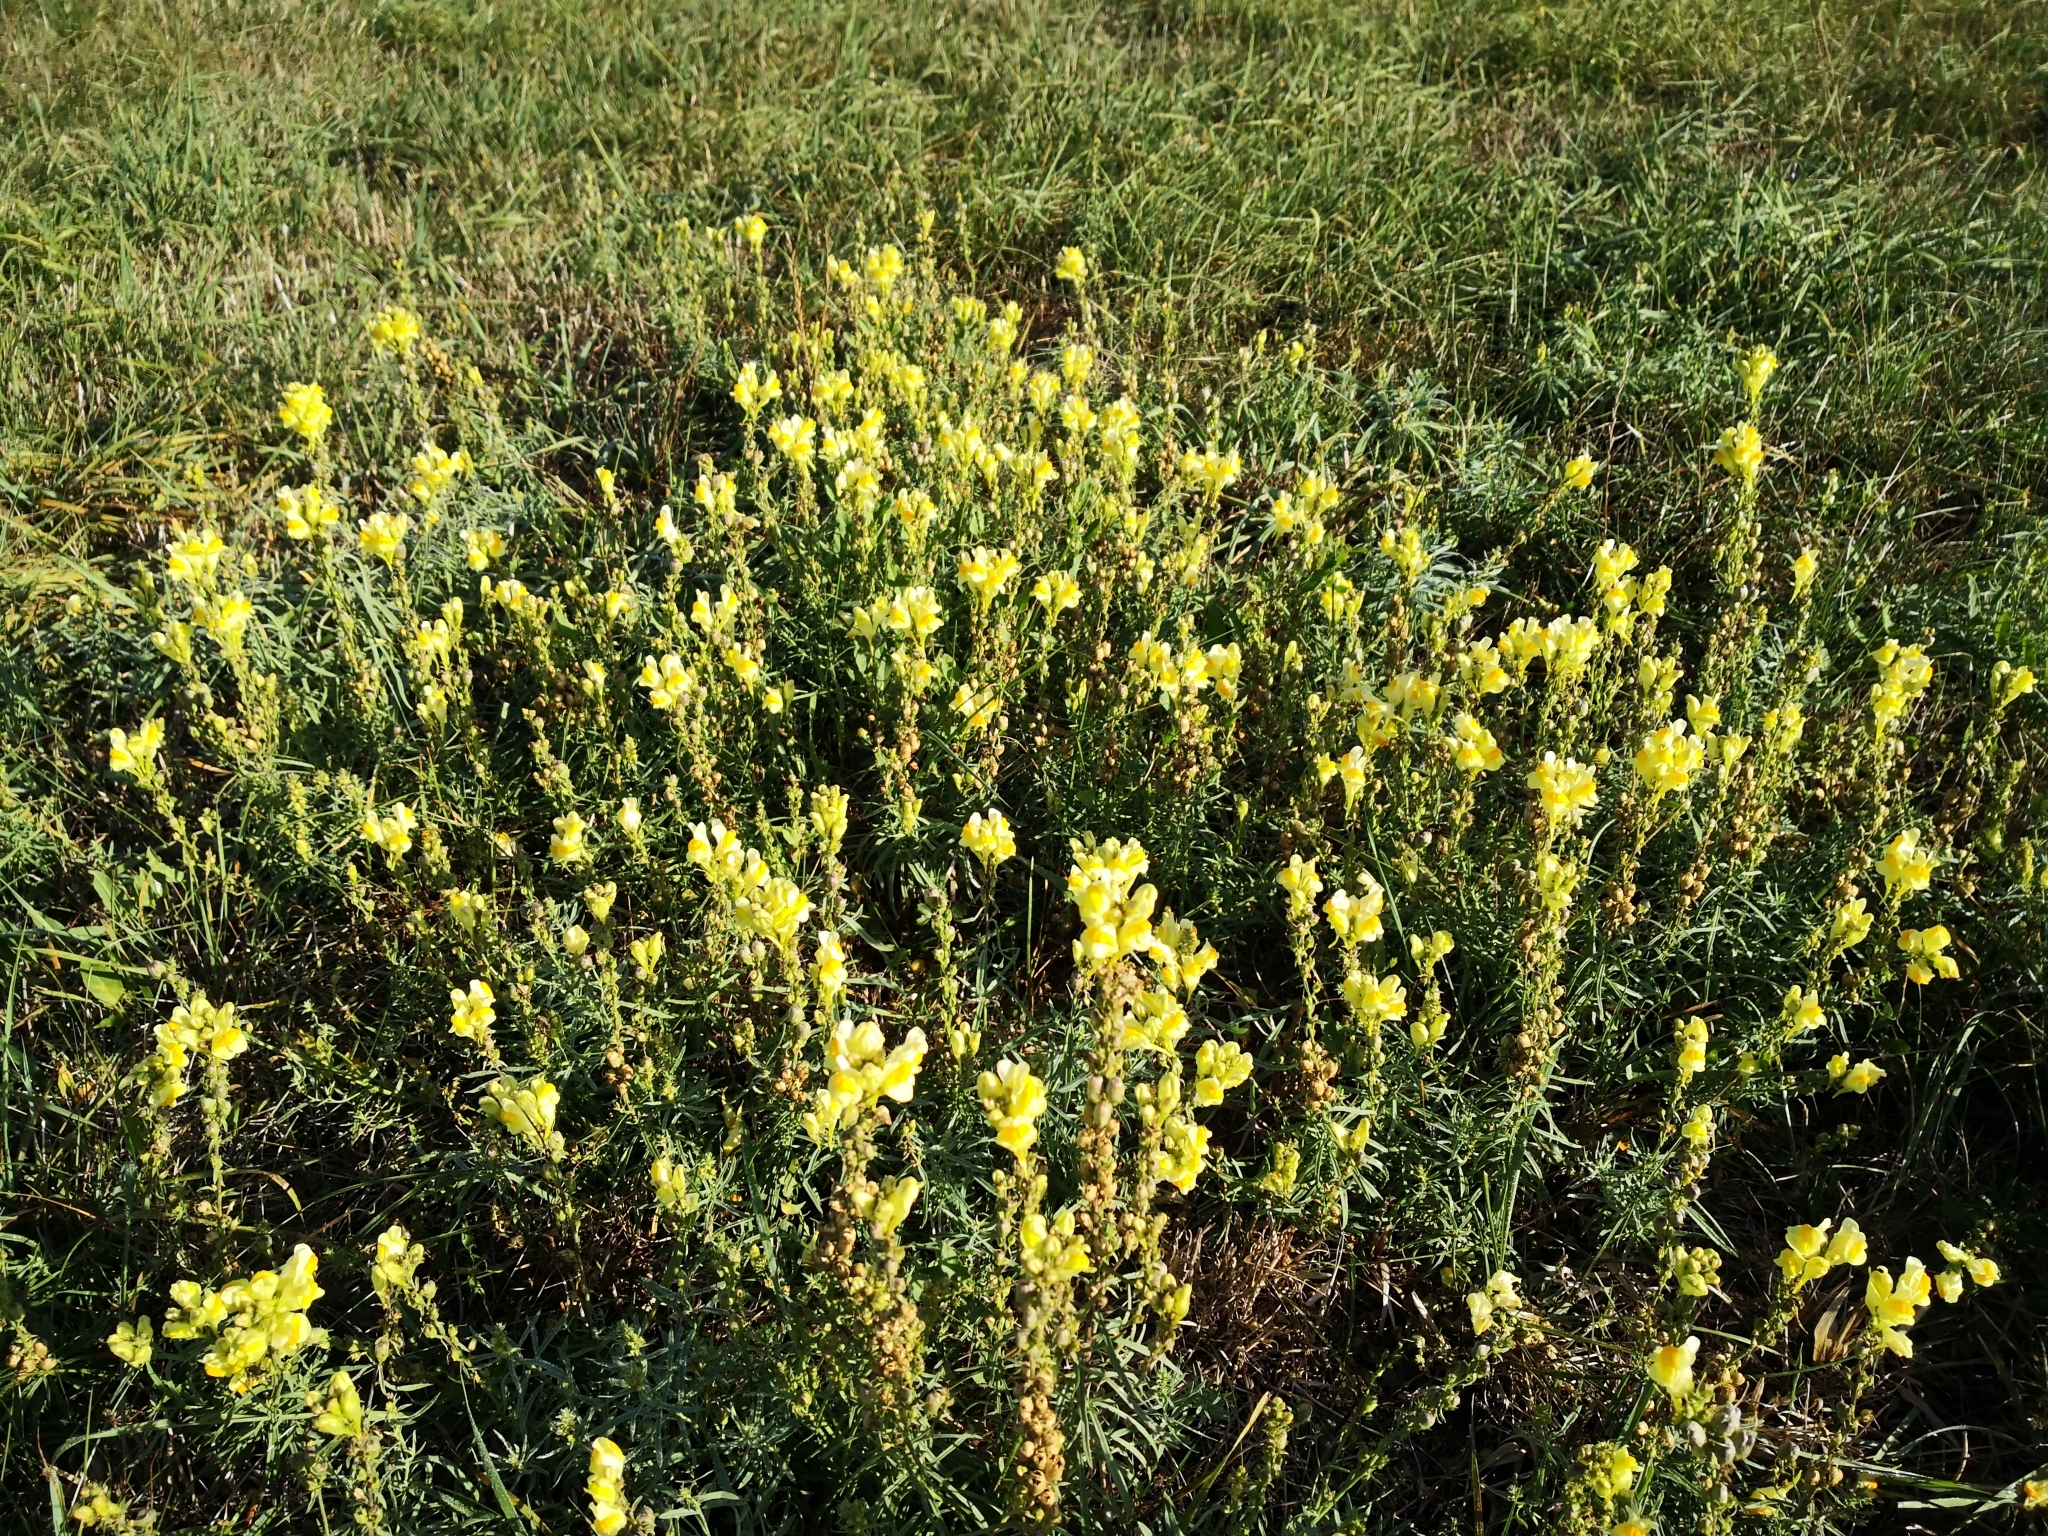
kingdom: Plantae
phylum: Tracheophyta
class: Magnoliopsida
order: Lamiales
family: Plantaginaceae
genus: Linaria
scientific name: Linaria vulgaris
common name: Butter and eggs
